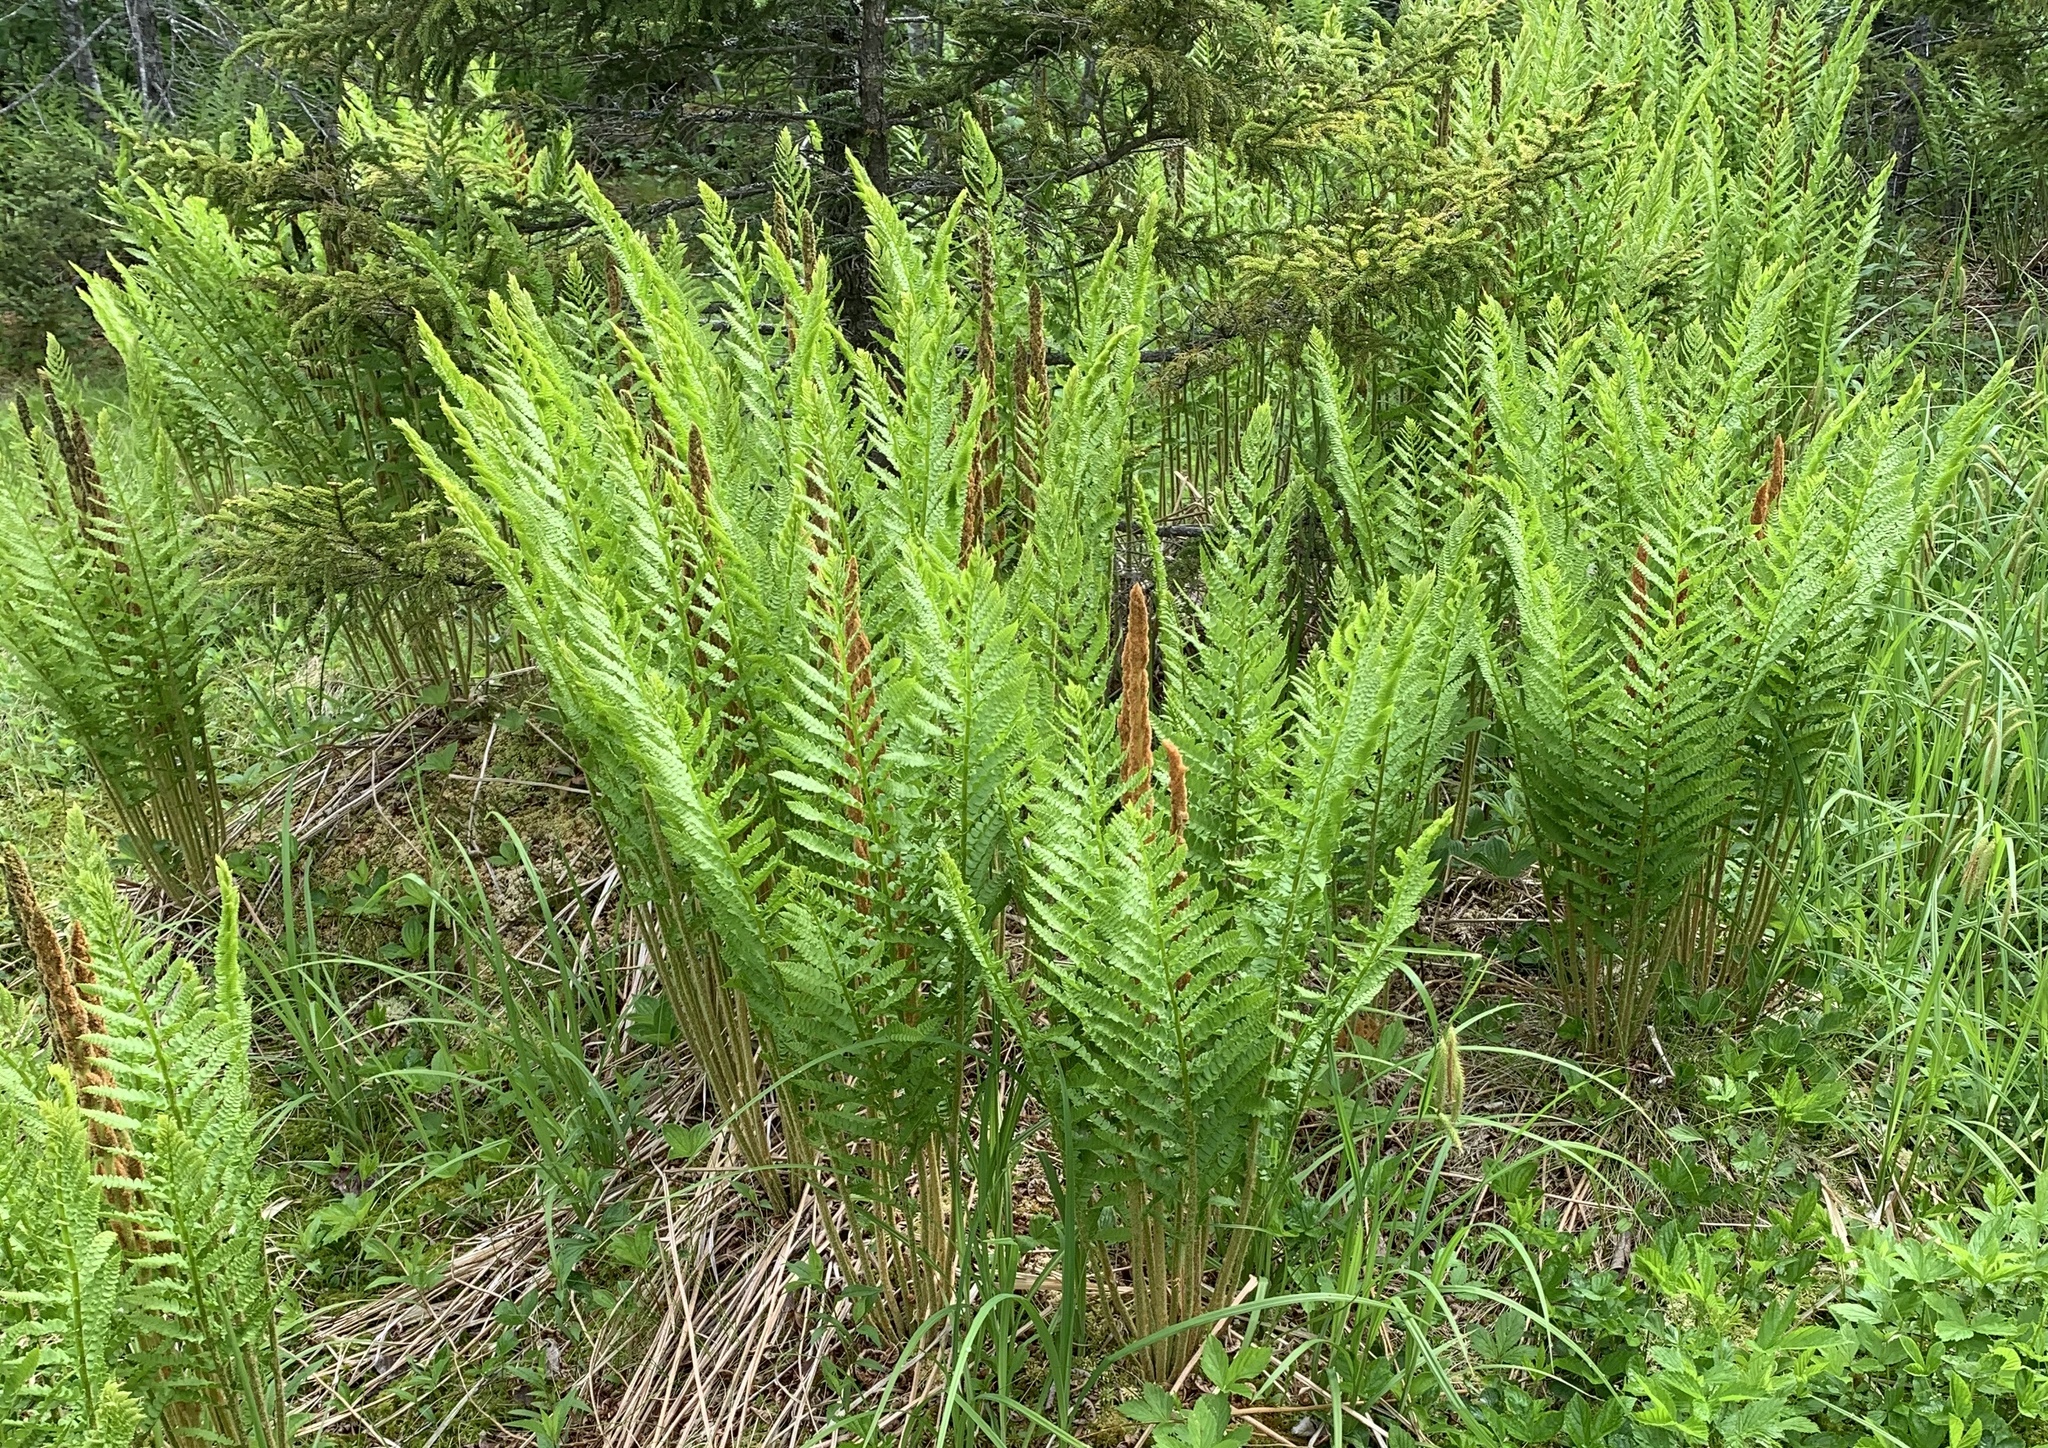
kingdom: Plantae
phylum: Tracheophyta
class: Polypodiopsida
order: Osmundales
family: Osmundaceae
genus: Osmundastrum
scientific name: Osmundastrum cinnamomeum
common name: Cinnamon fern
